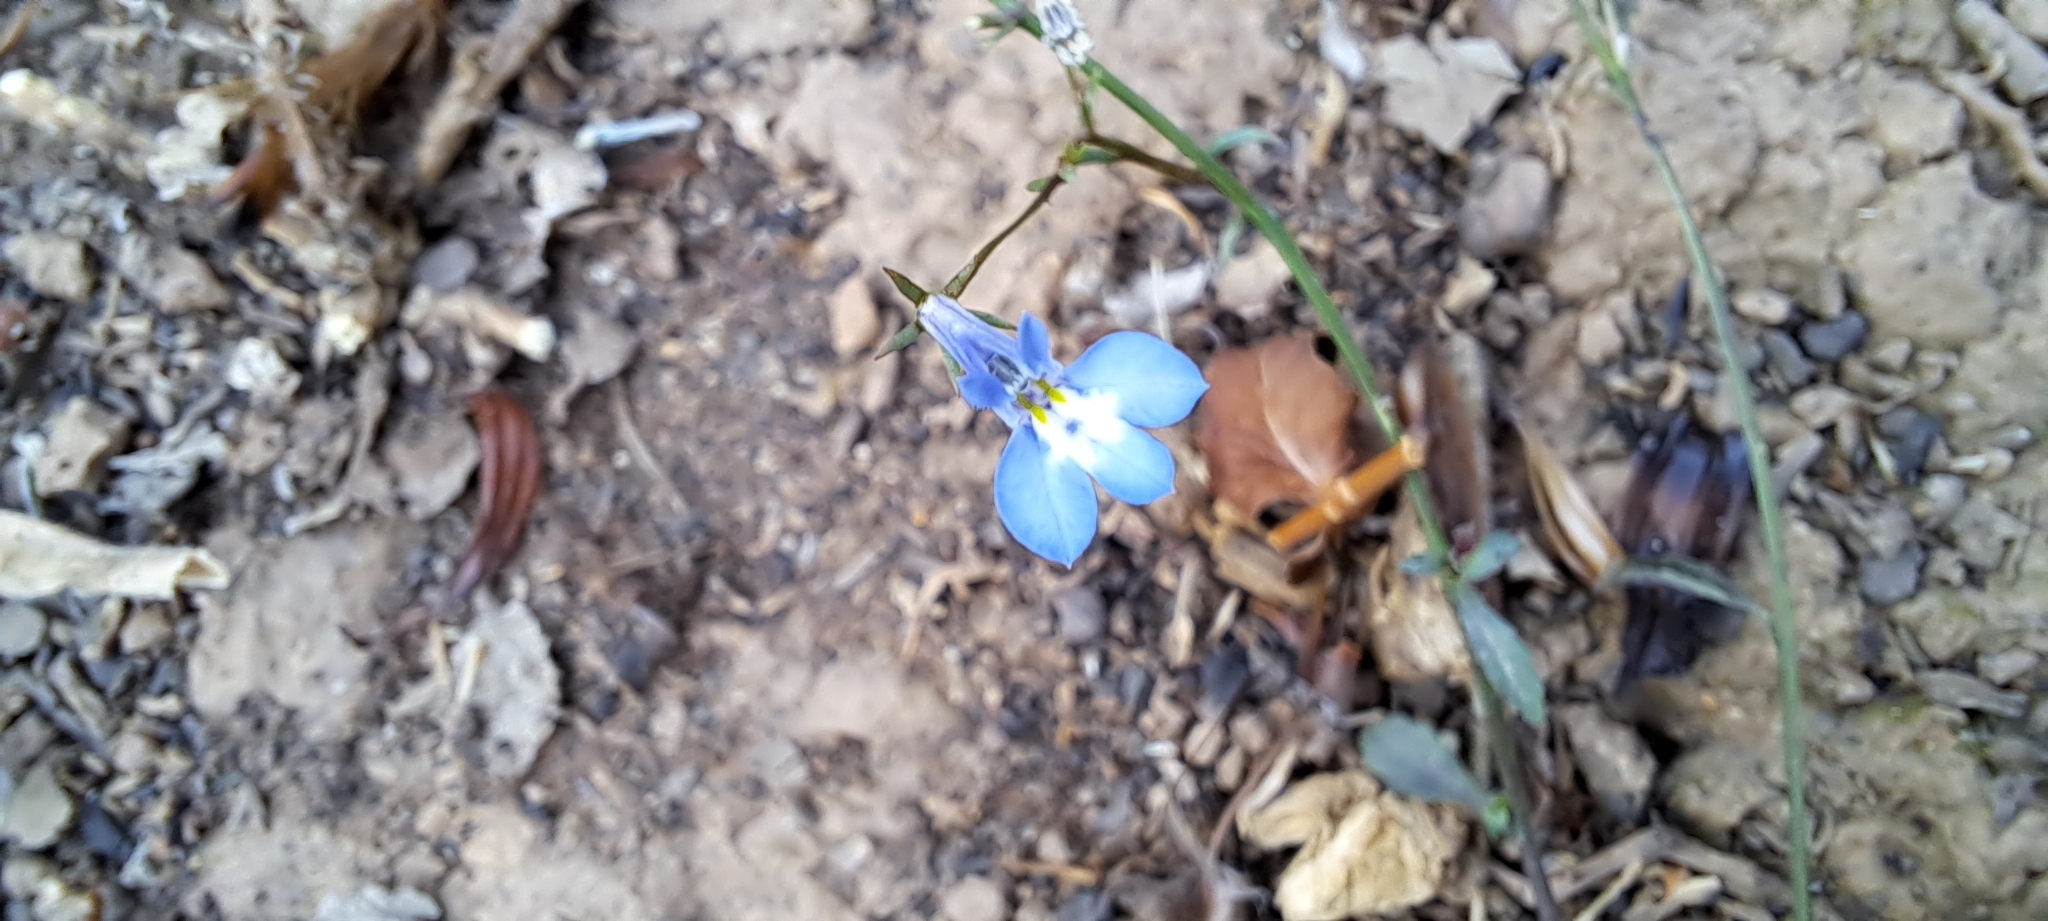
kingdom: Plantae
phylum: Tracheophyta
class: Magnoliopsida
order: Asterales
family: Campanulaceae
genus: Lobelia
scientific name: Lobelia erinus
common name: Edging lobelia
